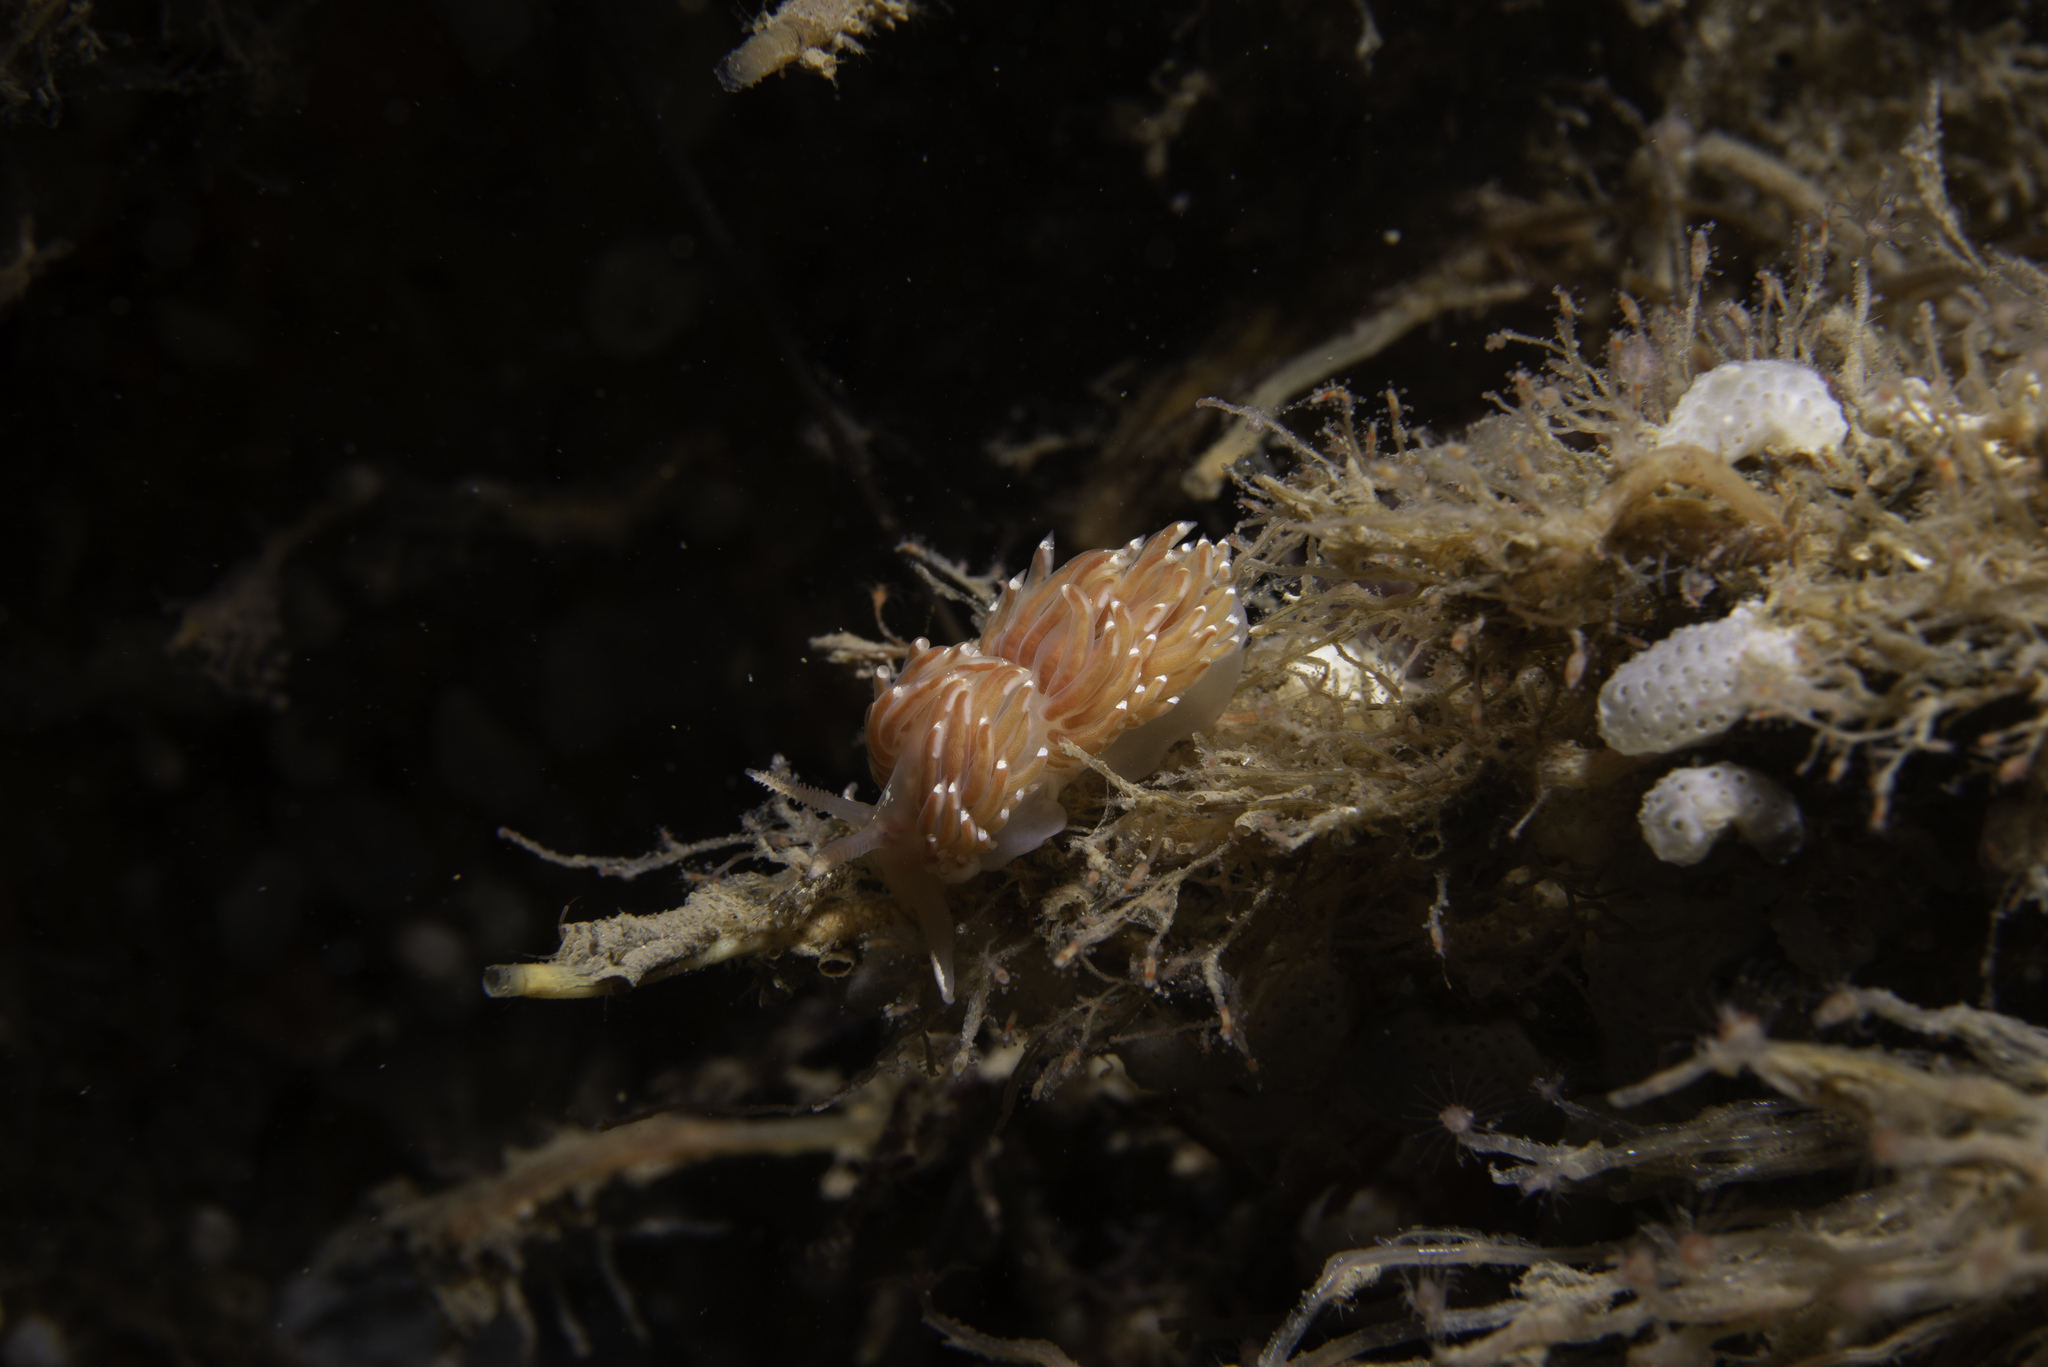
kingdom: Animalia
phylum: Mollusca
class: Gastropoda
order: Nudibranchia
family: Facelinidae
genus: Facelina
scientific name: Facelina bostoniensis
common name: Boston facelina
